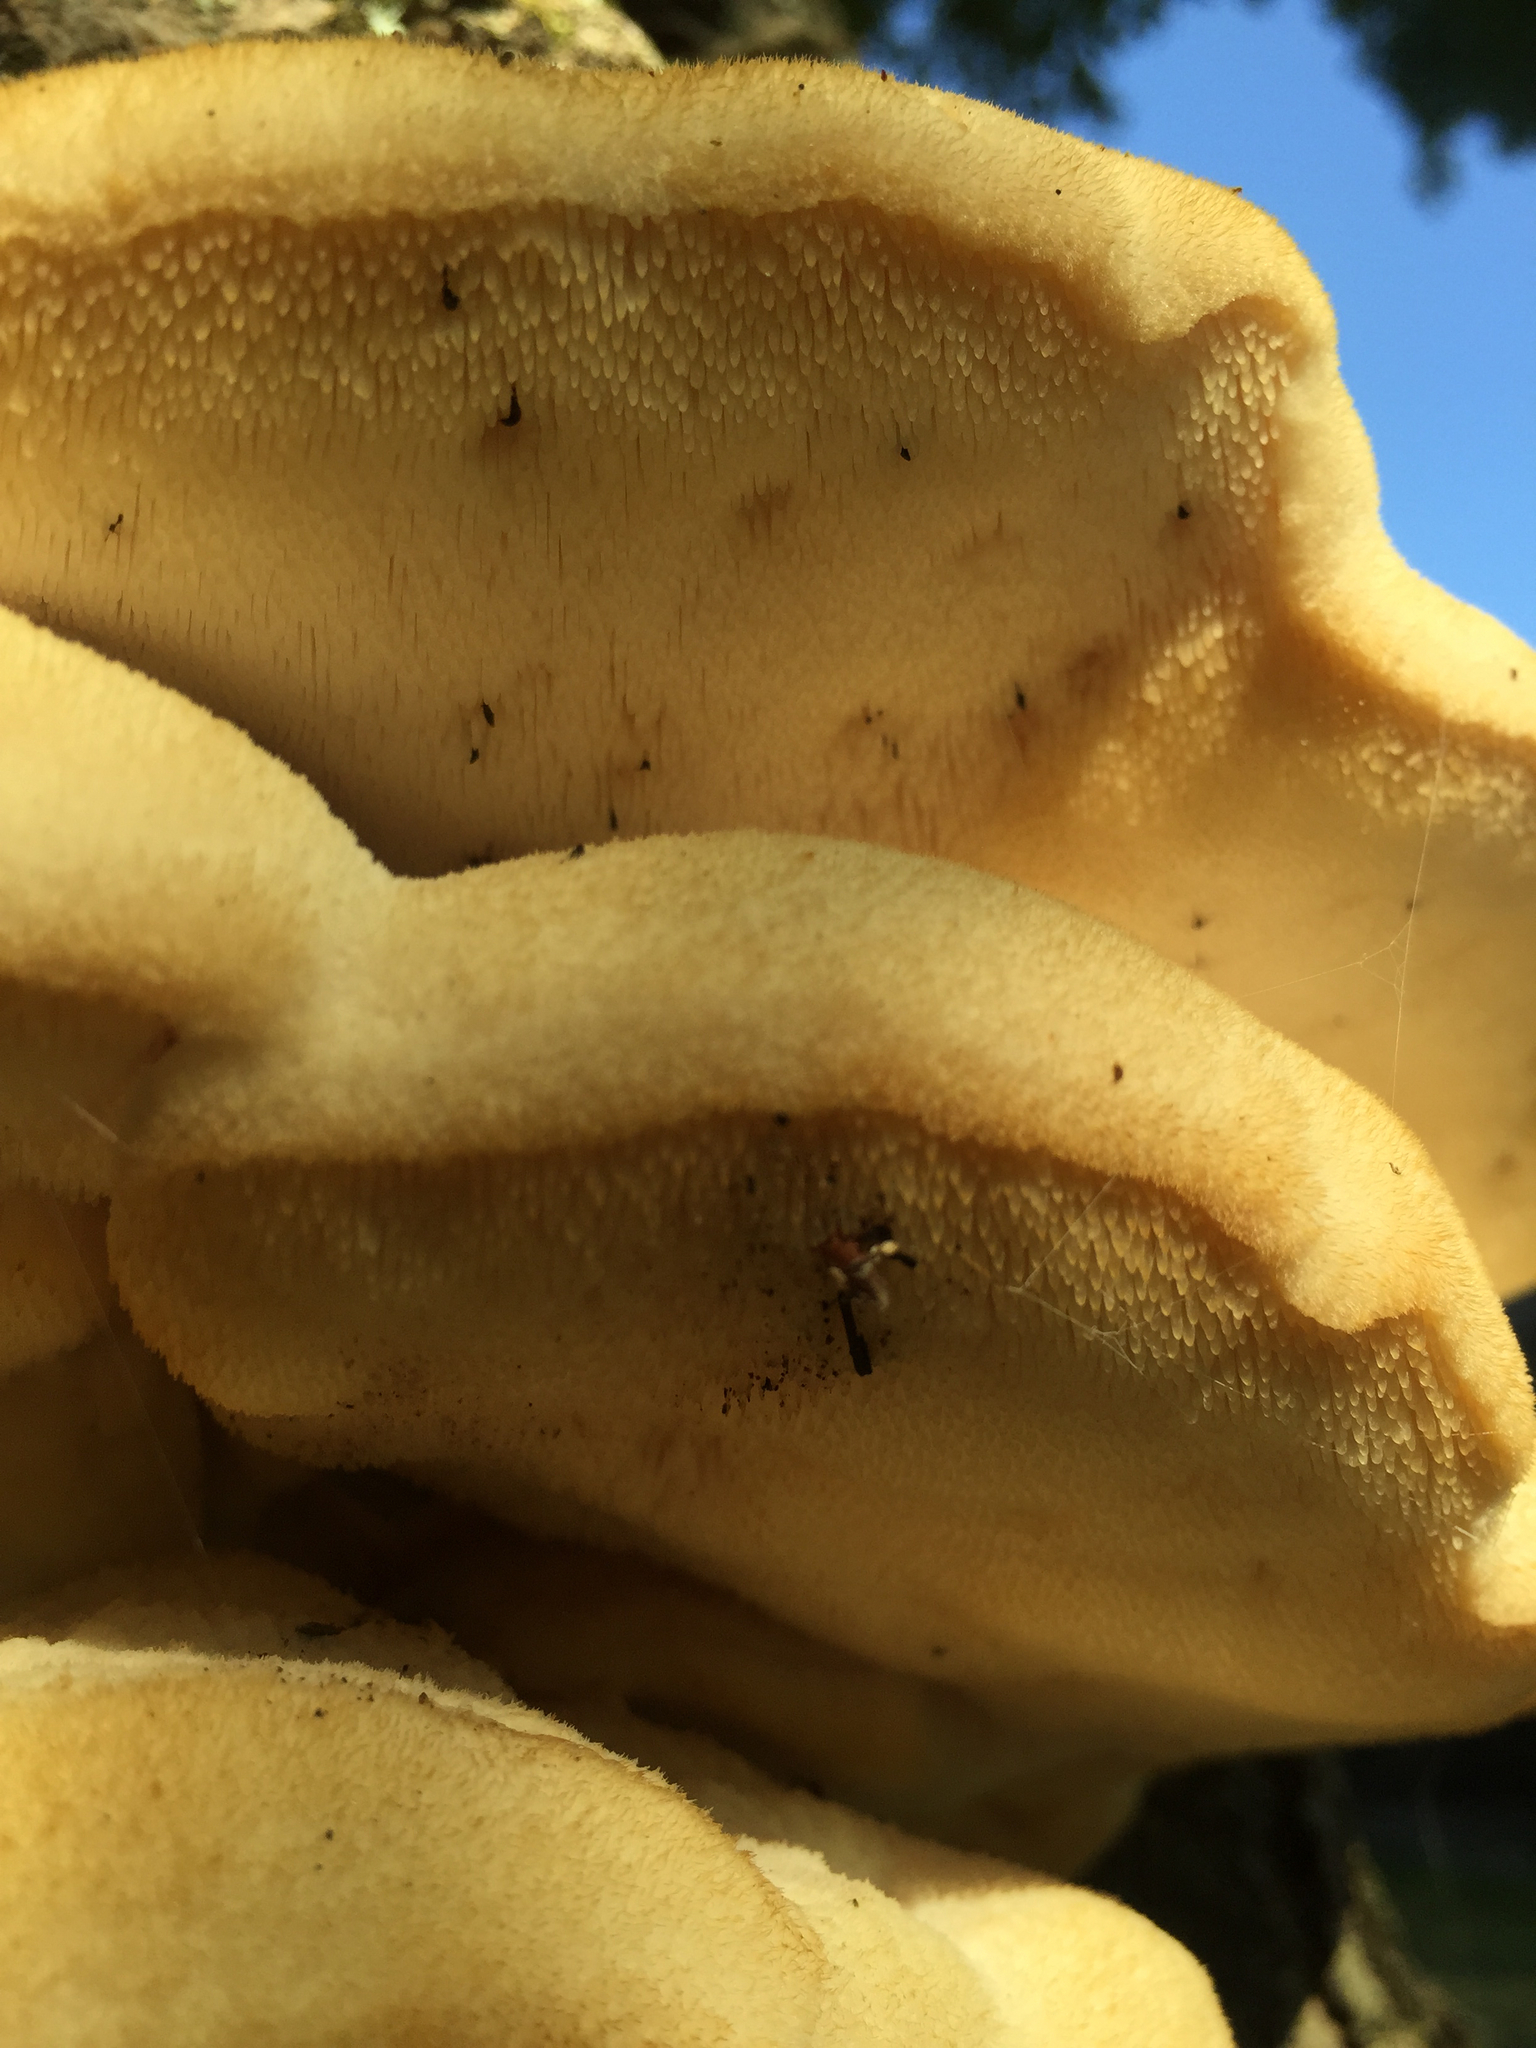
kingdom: Fungi
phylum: Basidiomycota
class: Agaricomycetes
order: Polyporales
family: Meruliaceae
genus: Climacodon
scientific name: Climacodon septentrionalis
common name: Northern tooth
